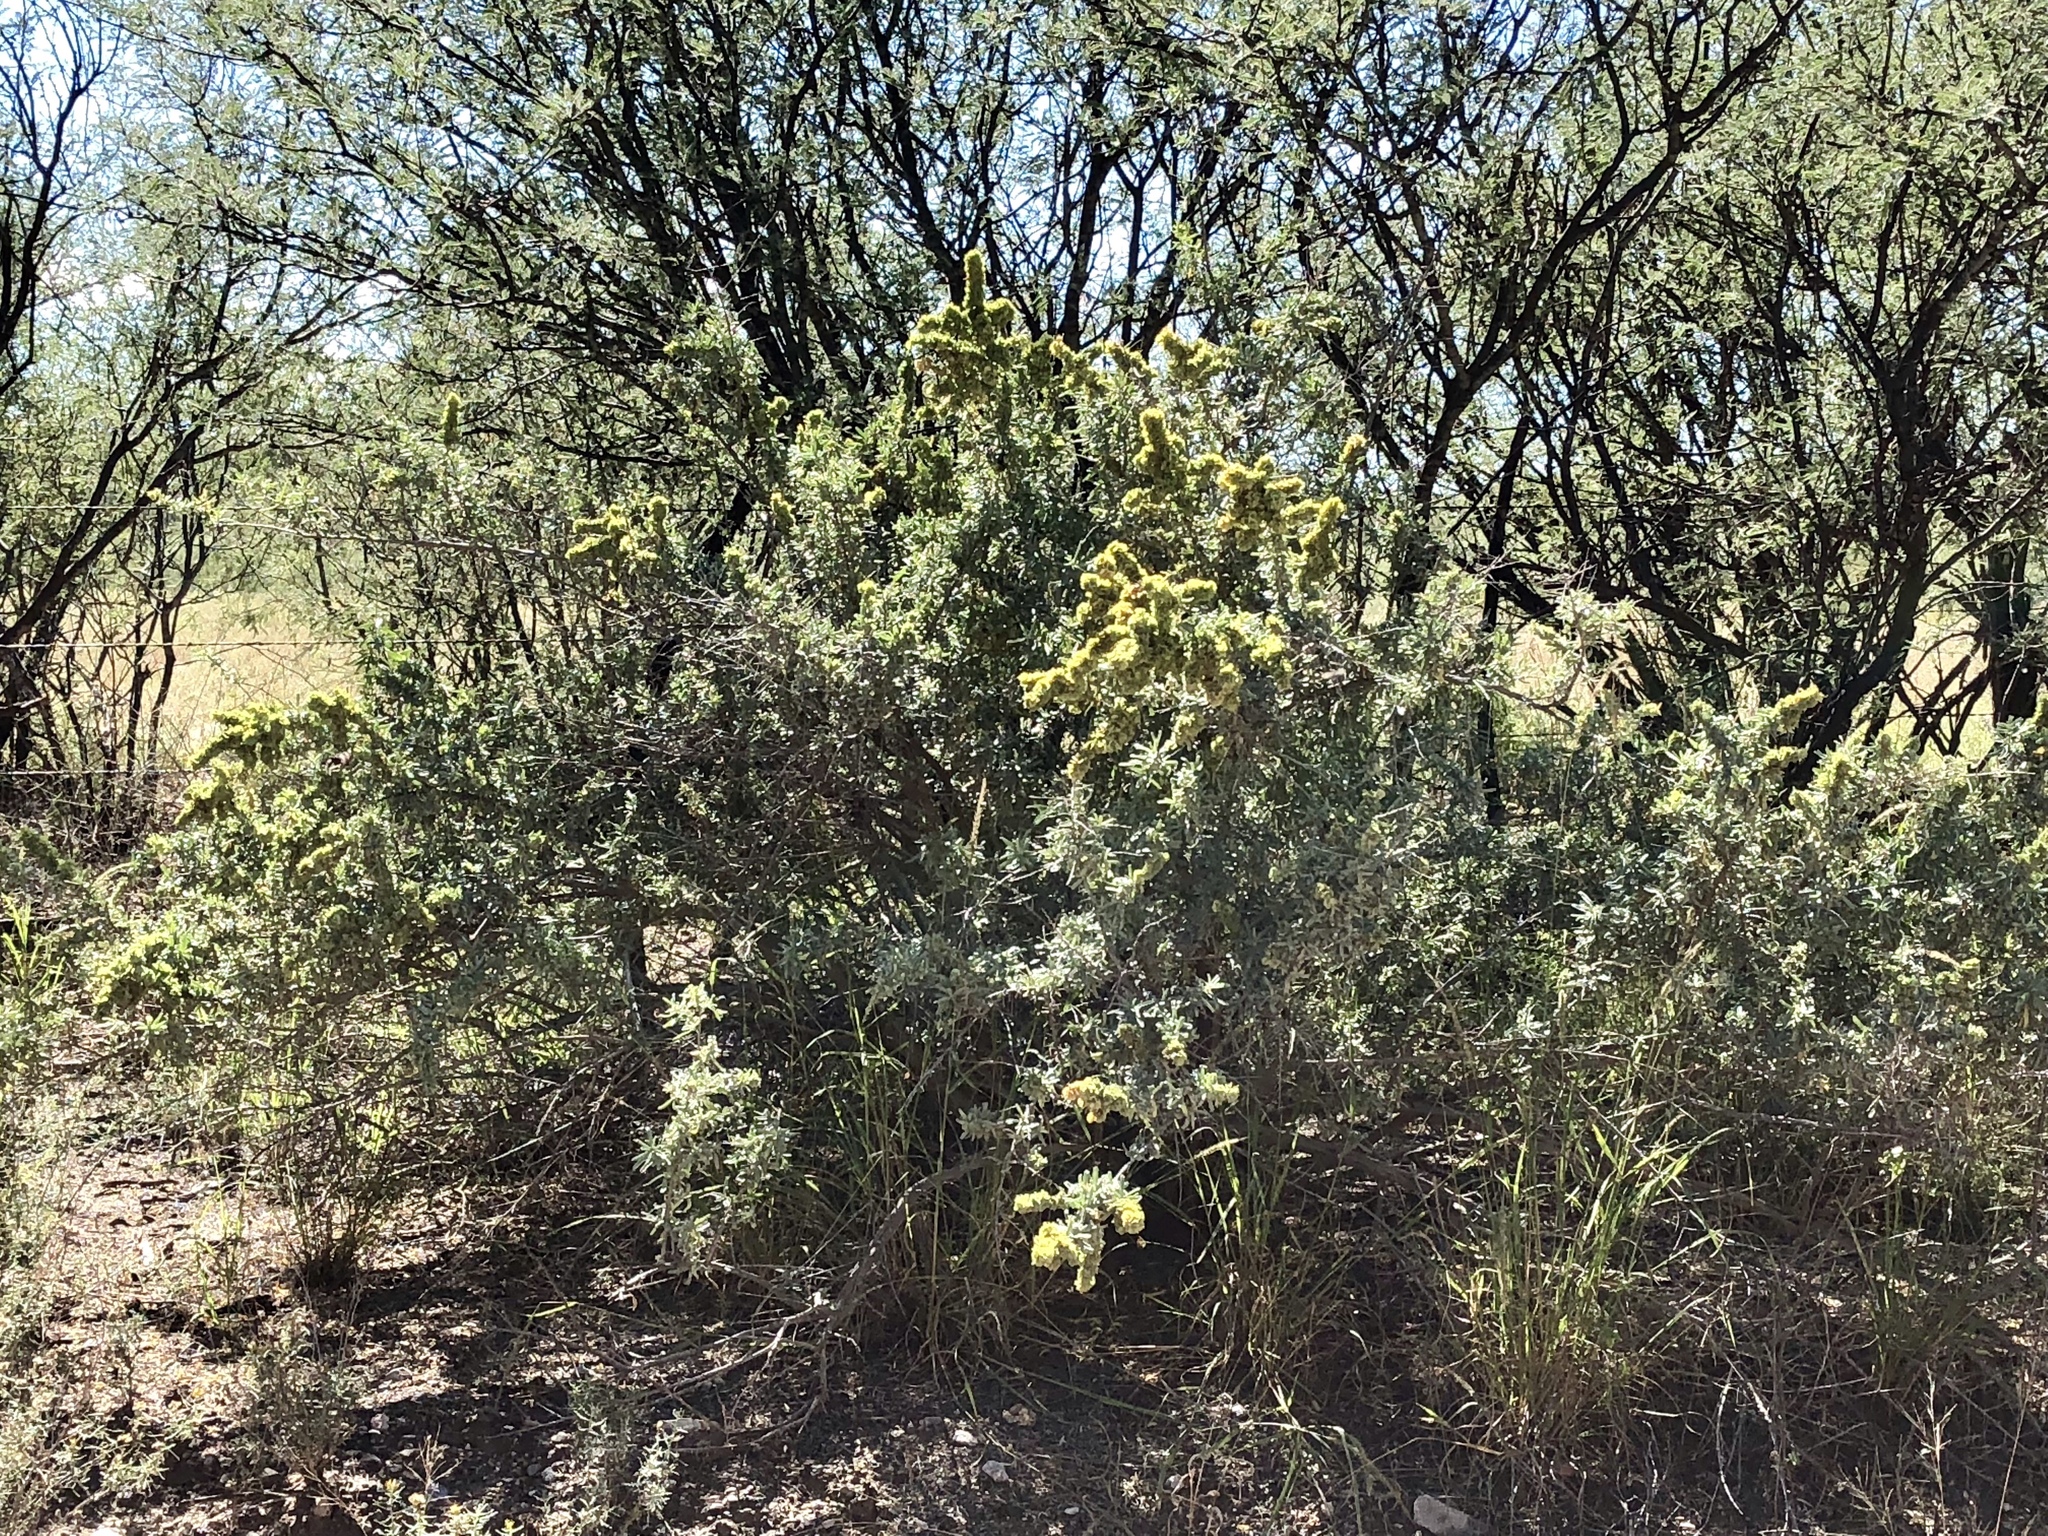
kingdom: Plantae
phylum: Tracheophyta
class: Magnoliopsida
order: Caryophyllales
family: Amaranthaceae
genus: Atriplex
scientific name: Atriplex canescens
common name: Four-wing saltbush
